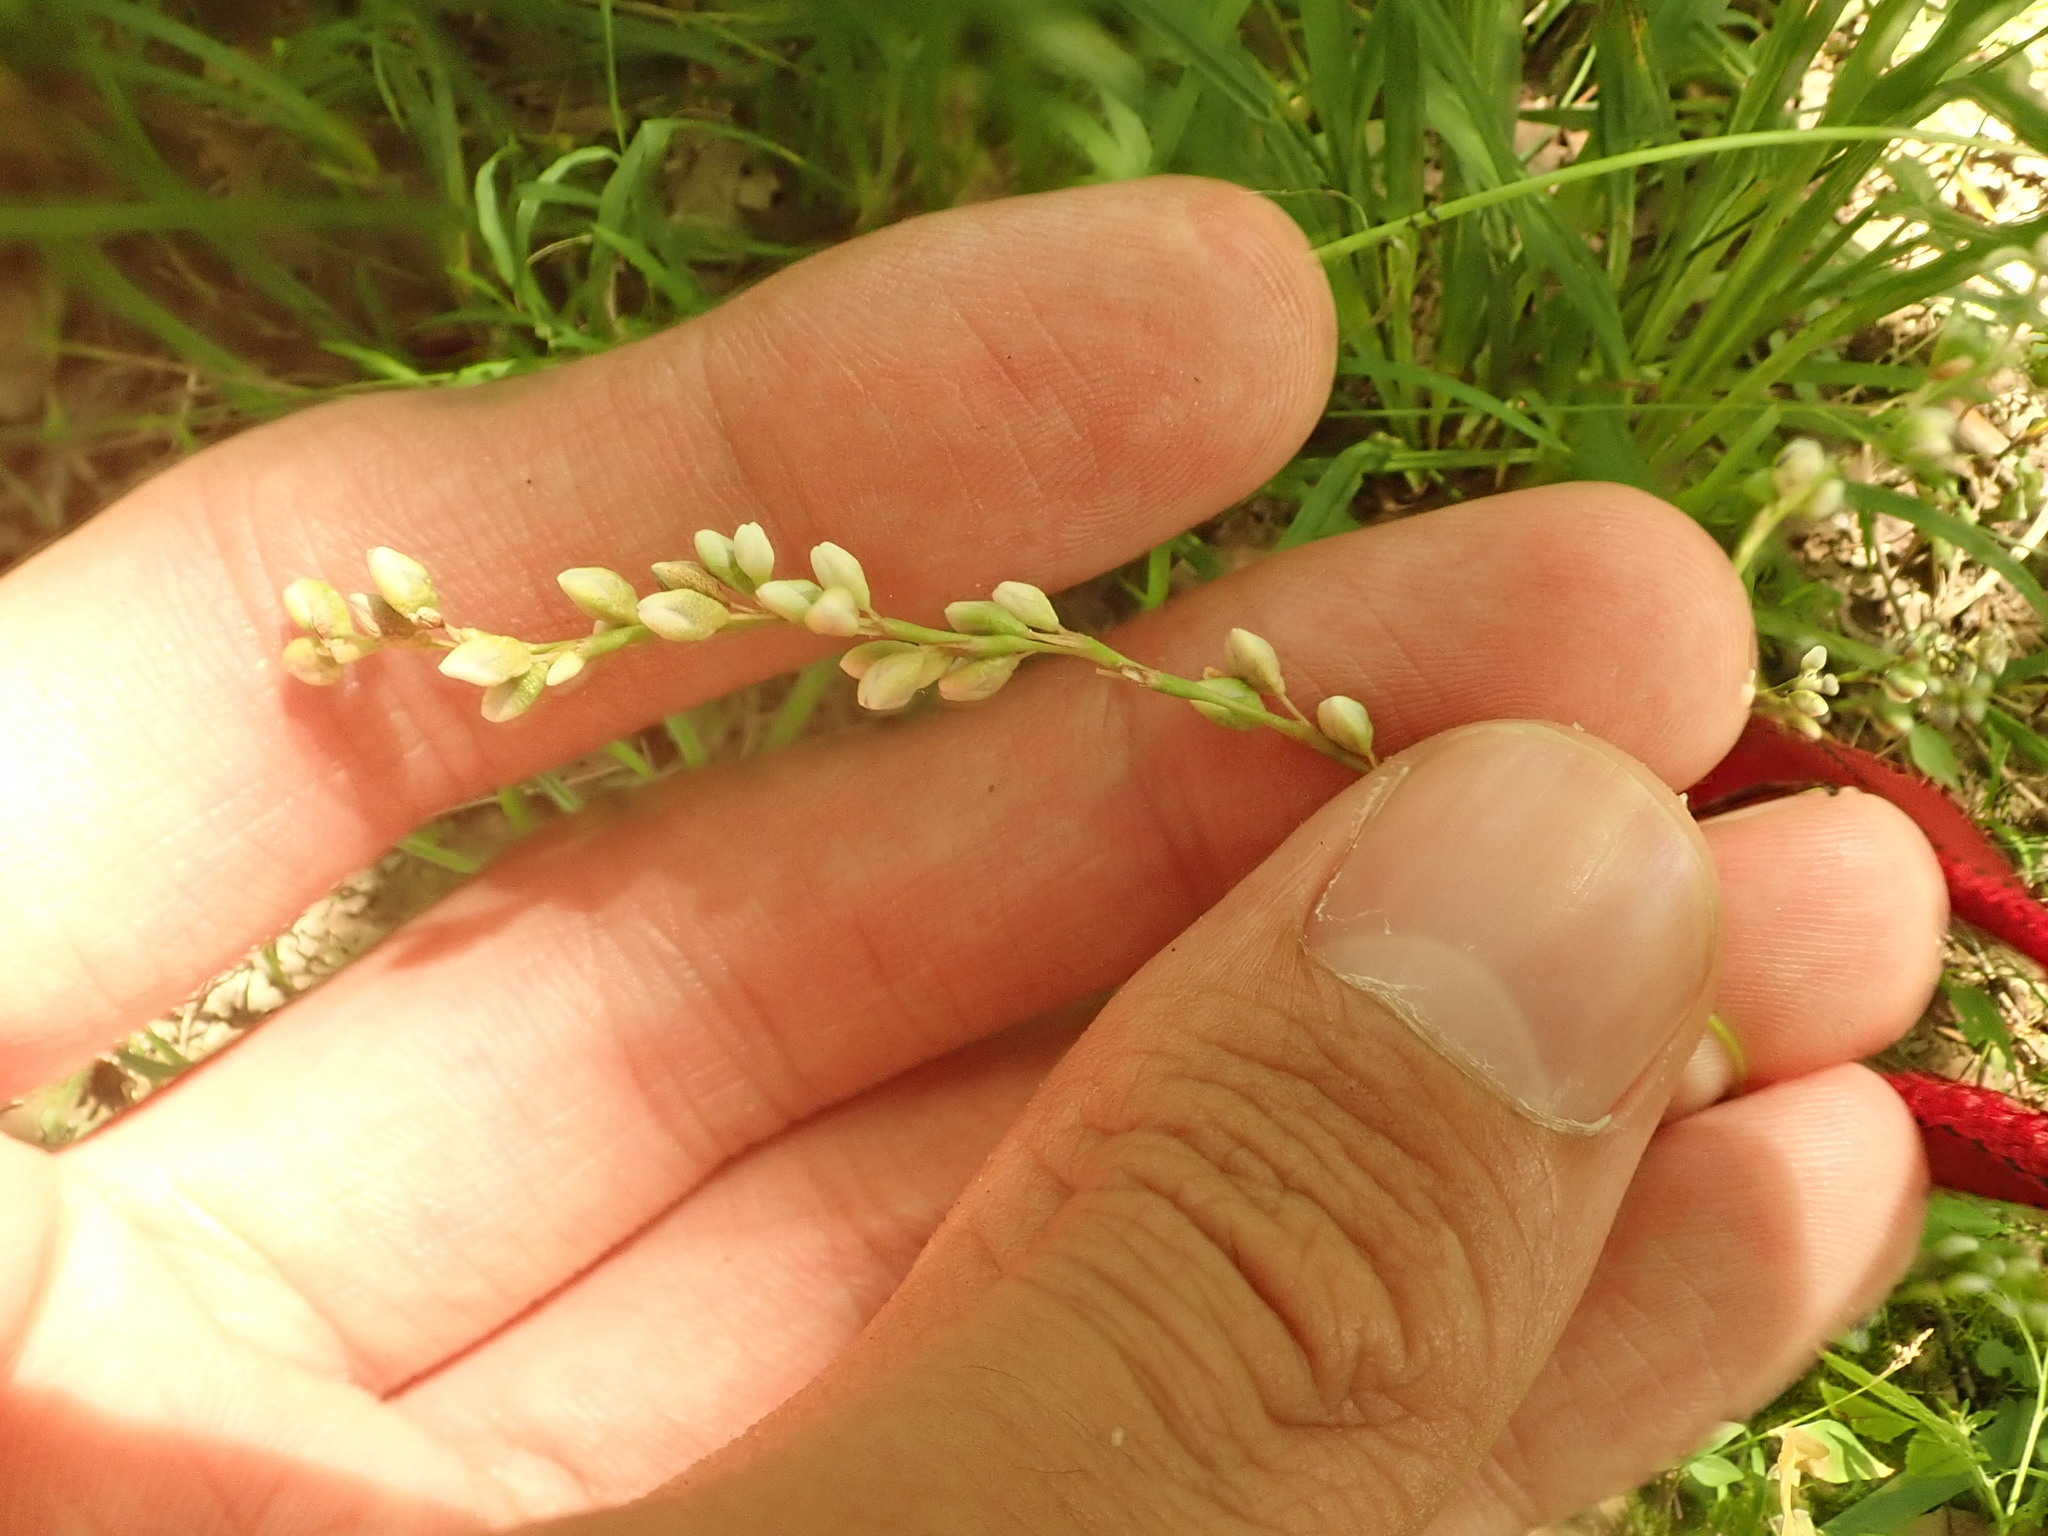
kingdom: Plantae
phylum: Tracheophyta
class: Magnoliopsida
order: Caryophyllales
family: Polygonaceae
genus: Persicaria
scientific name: Persicaria punctata
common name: Dotted smartweed
